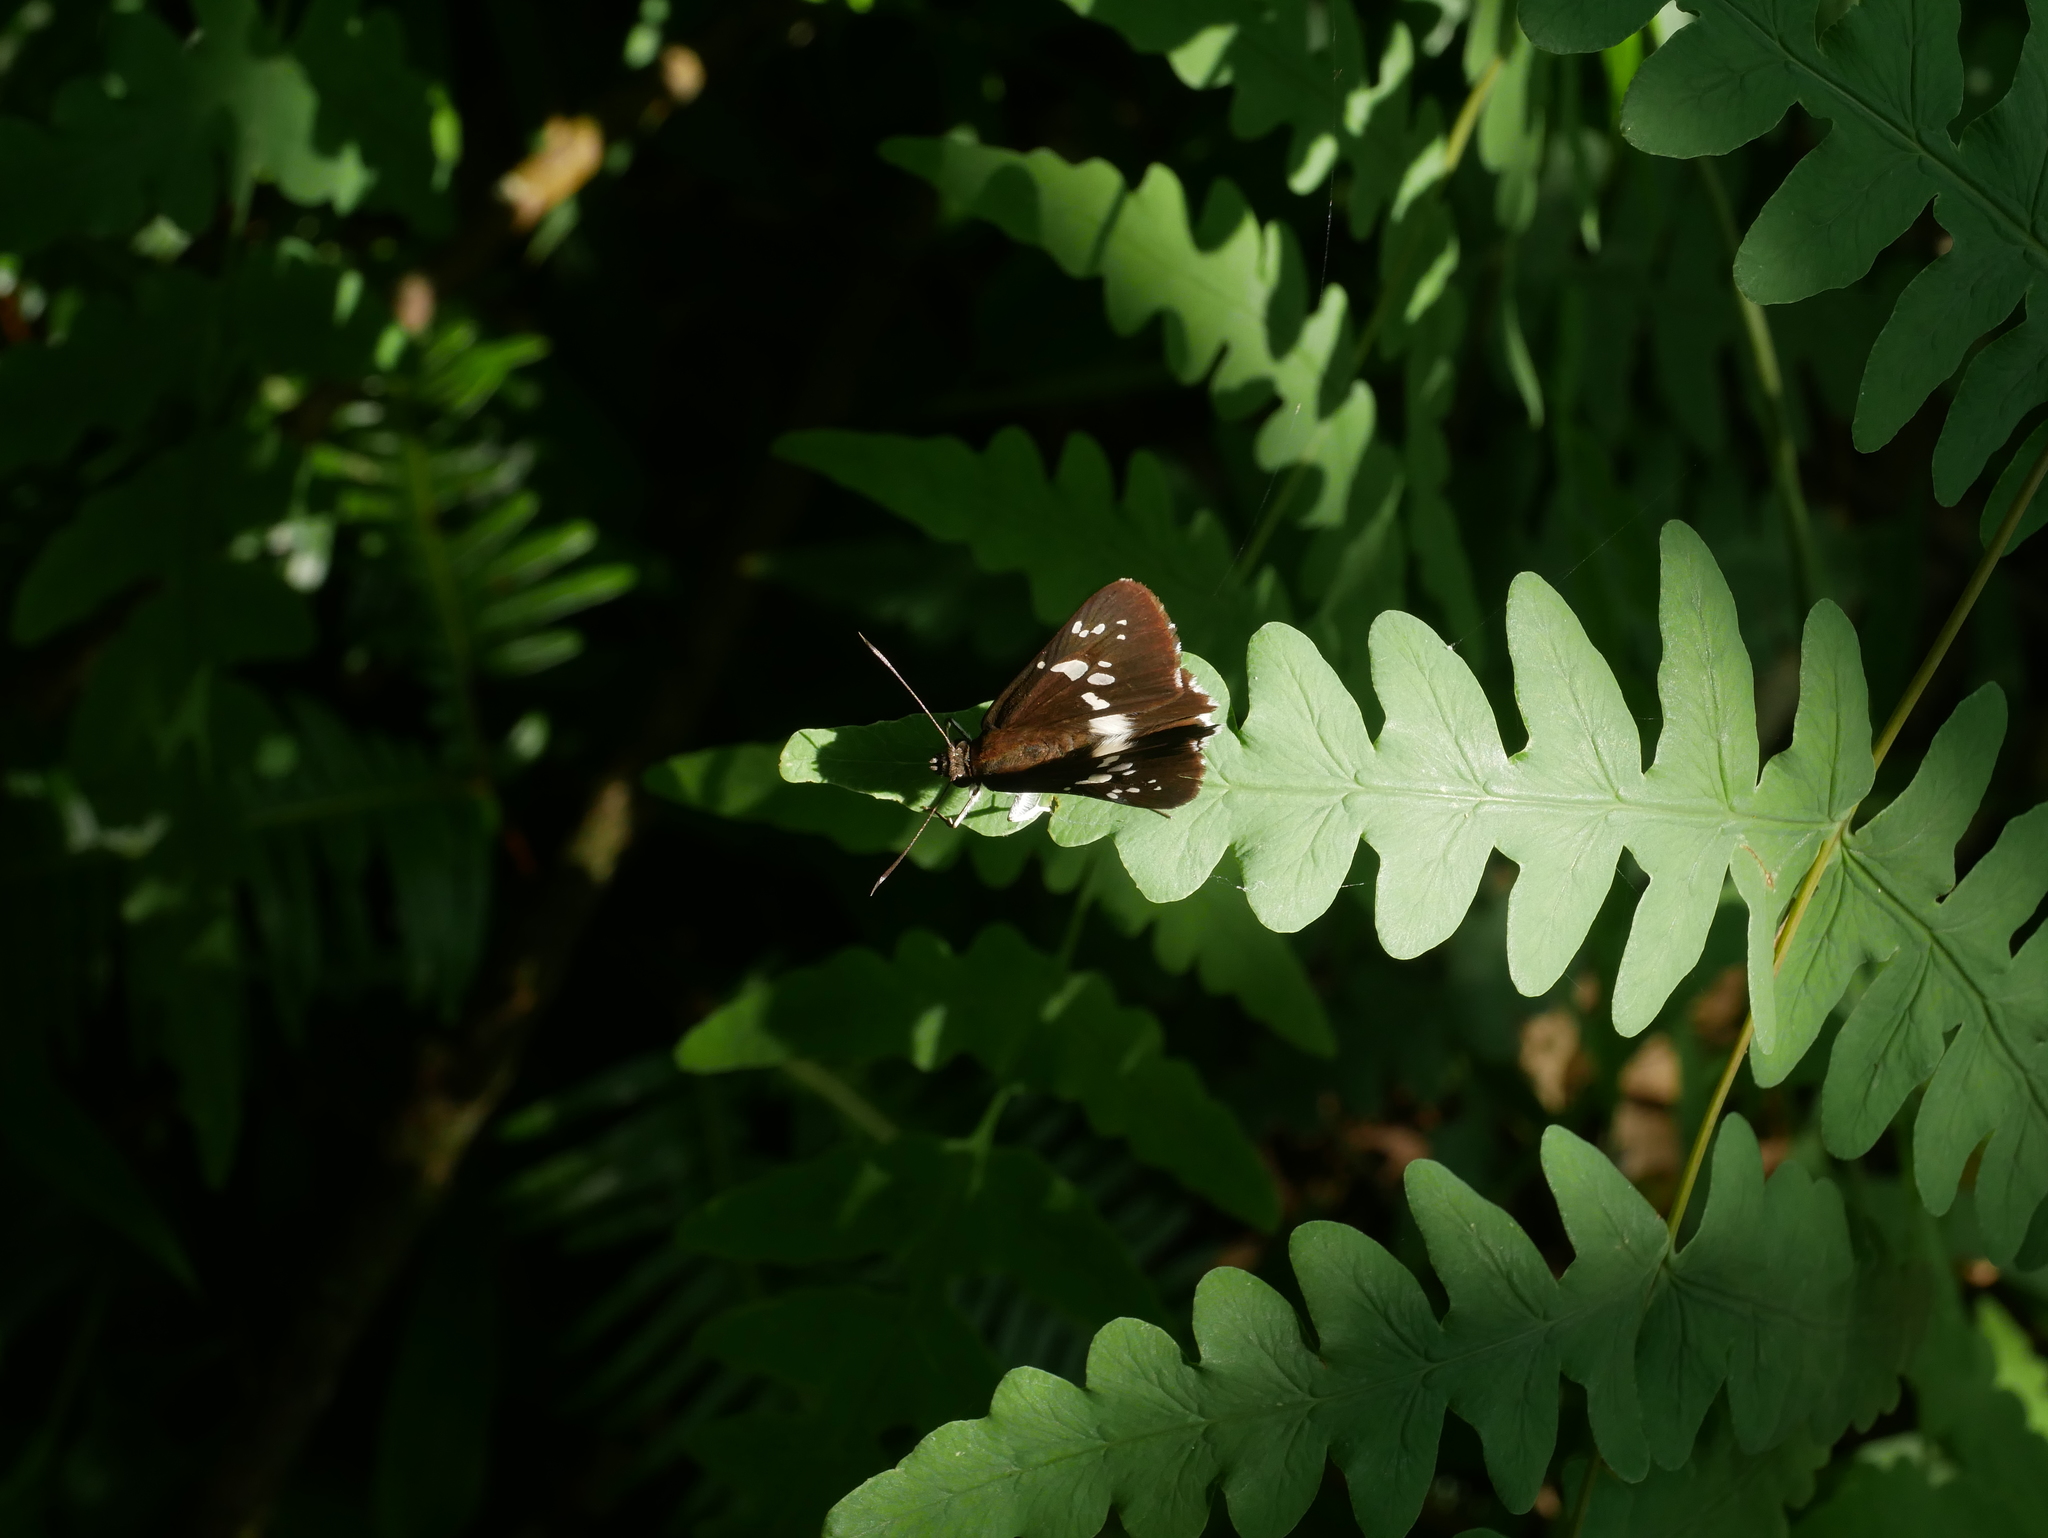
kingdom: Animalia
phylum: Arthropoda
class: Insecta
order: Lepidoptera
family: Hesperiidae
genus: Daimio
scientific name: Daimio tethys
